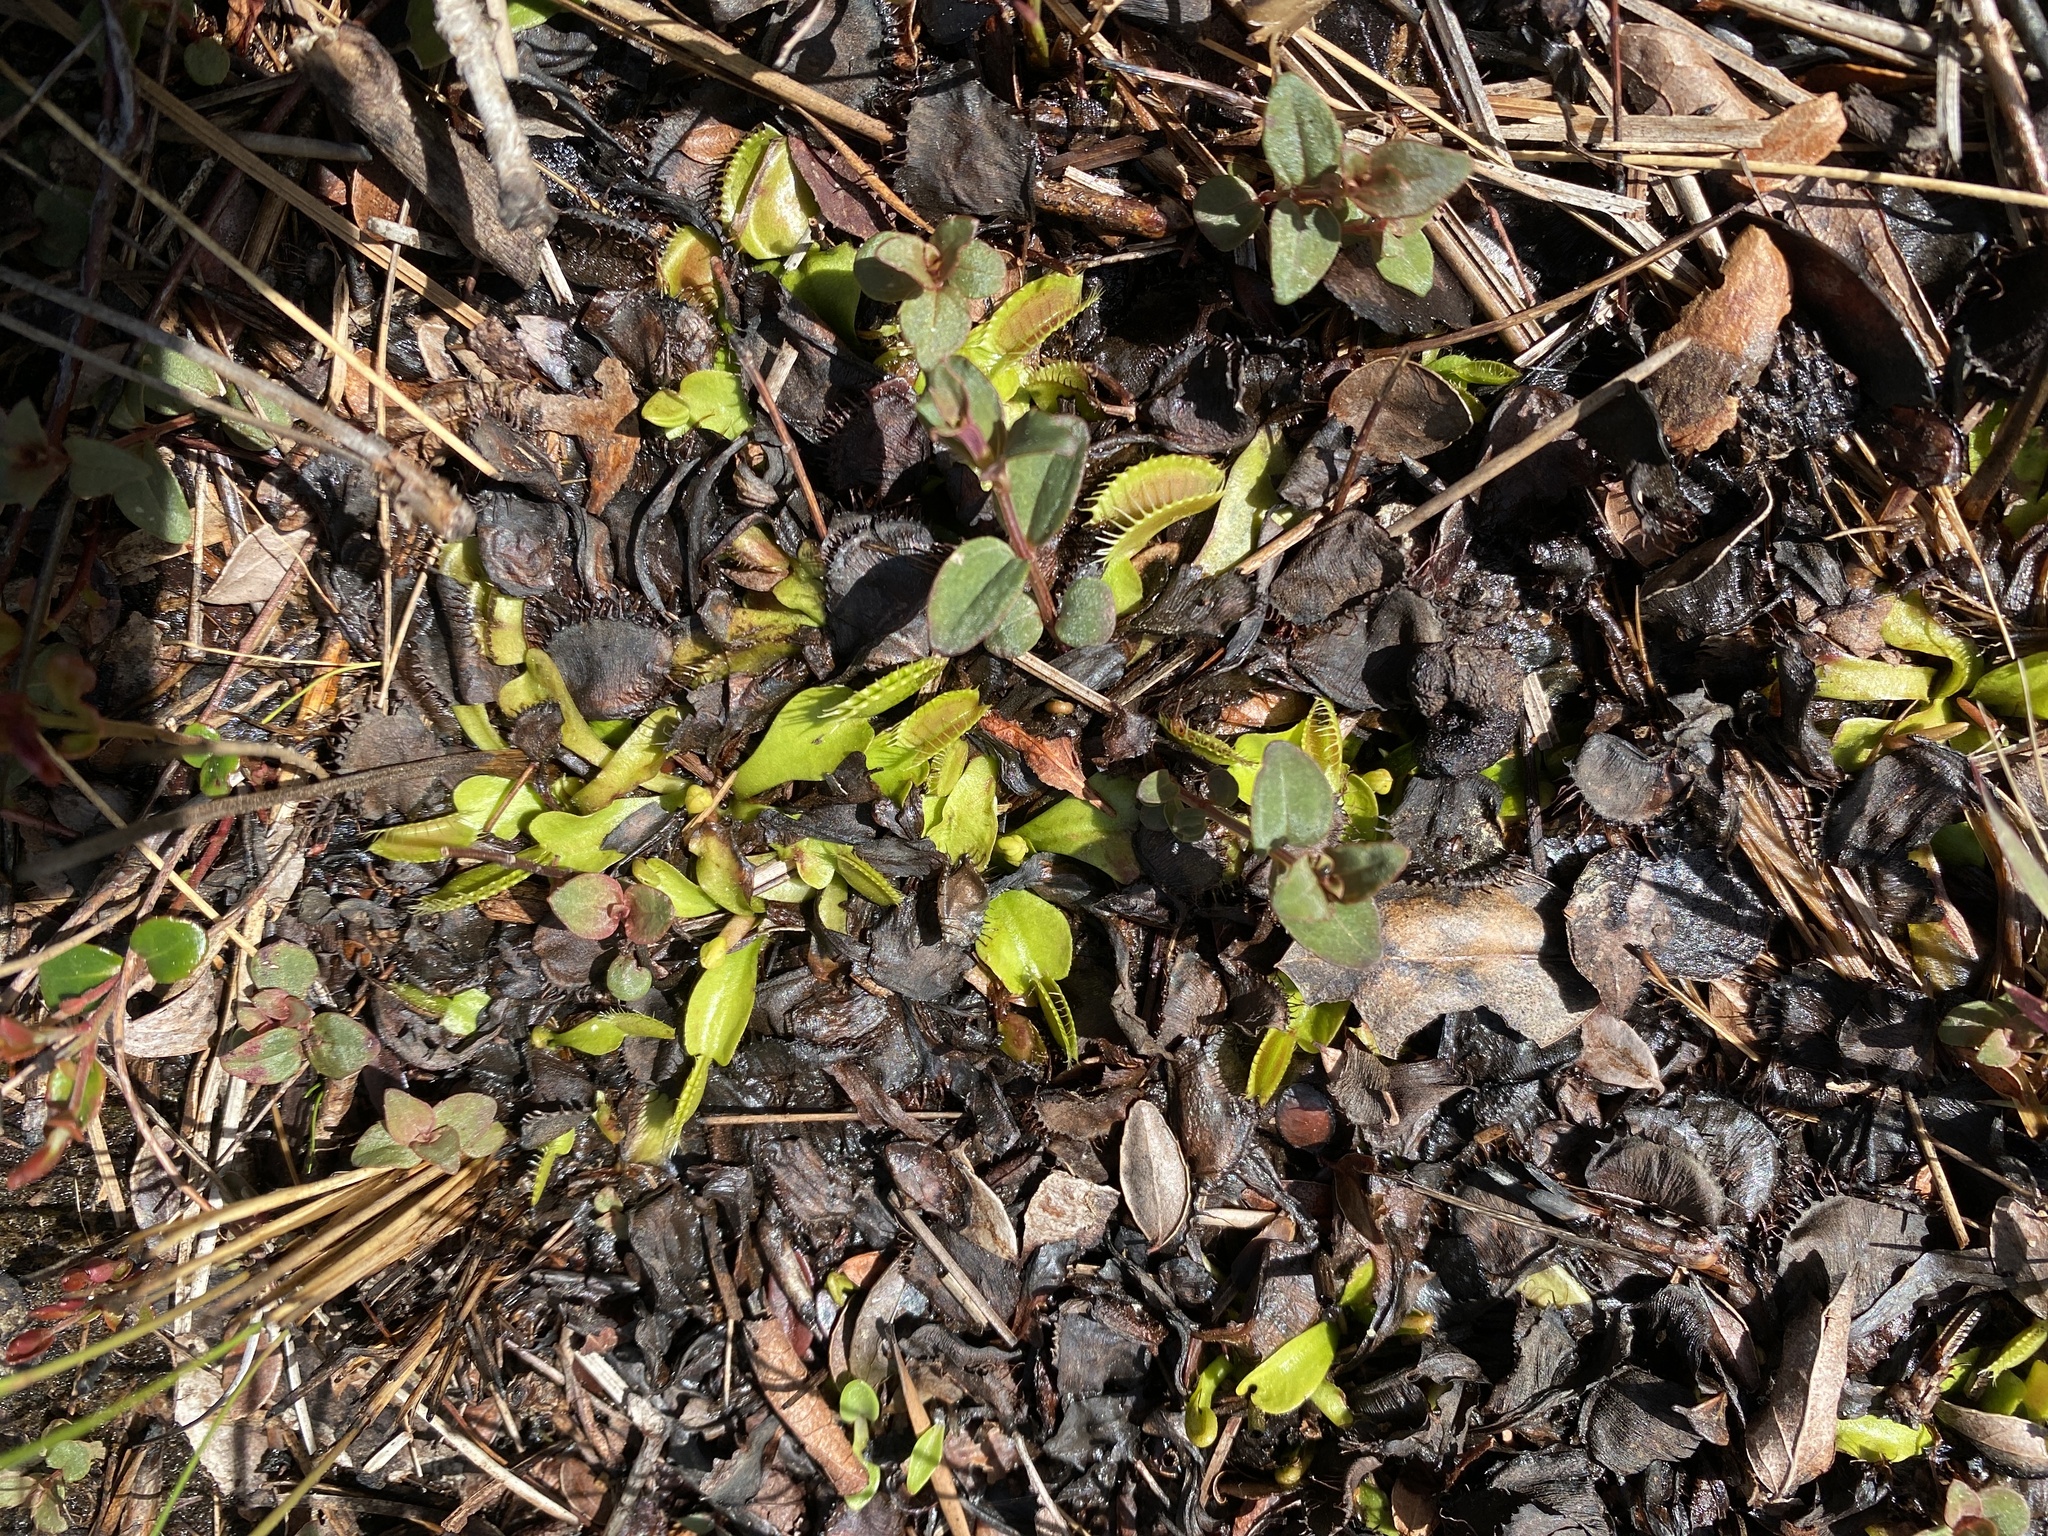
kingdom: Plantae
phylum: Tracheophyta
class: Magnoliopsida
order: Caryophyllales
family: Droseraceae
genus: Dionaea
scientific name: Dionaea muscipula
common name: Venus flytrap
